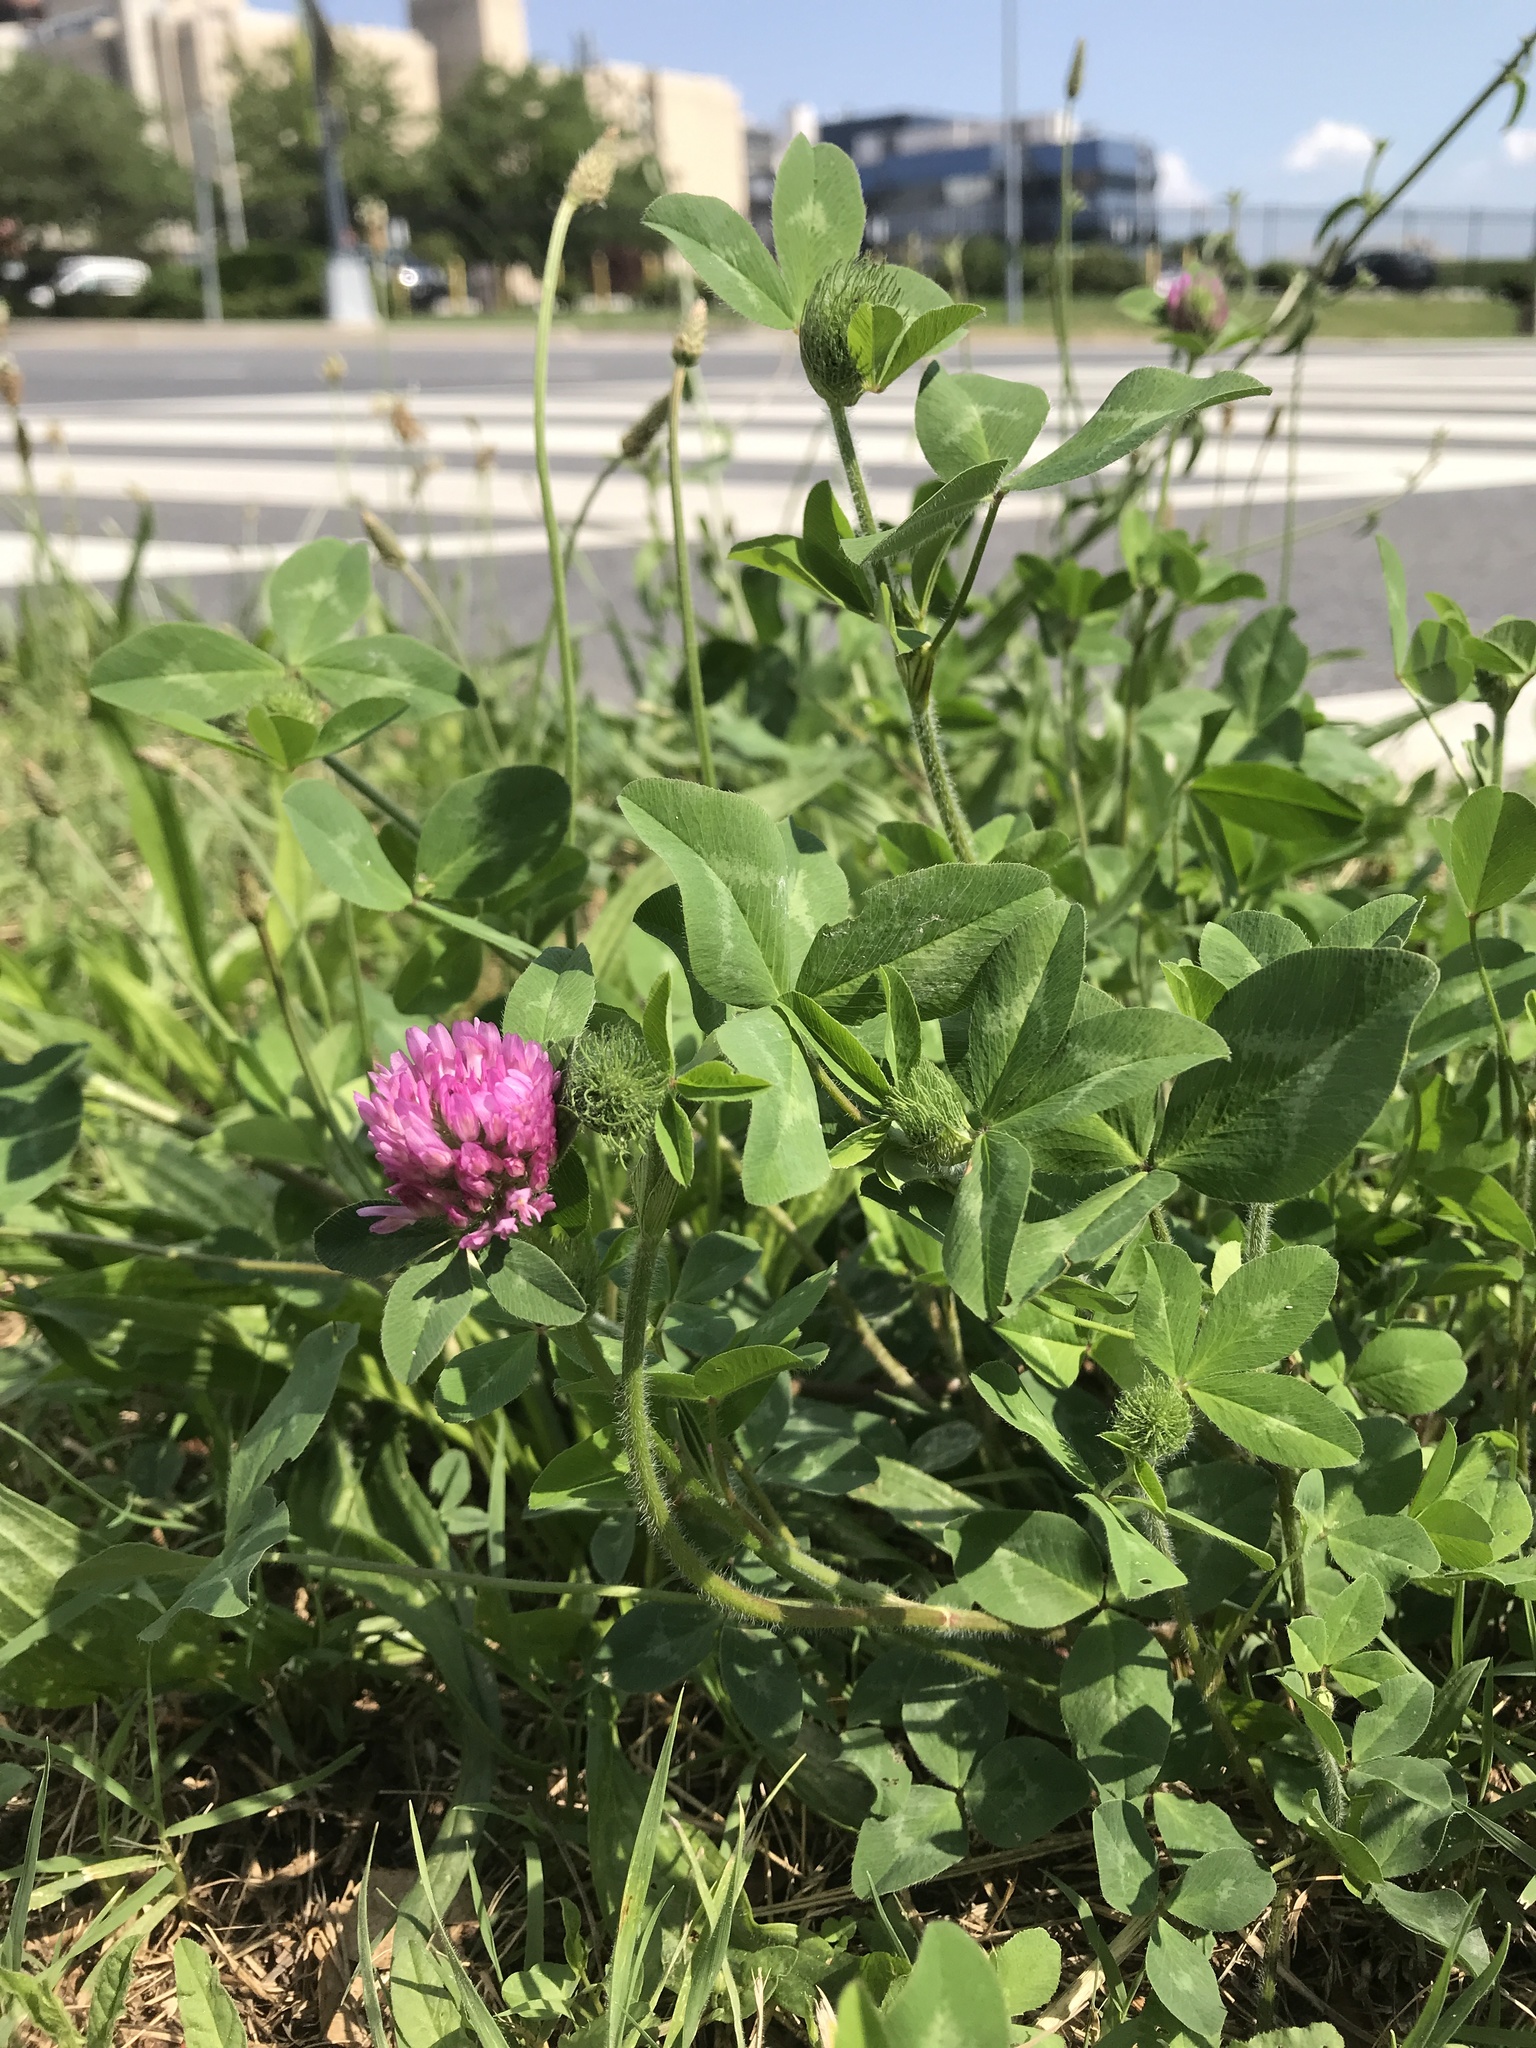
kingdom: Plantae
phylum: Tracheophyta
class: Magnoliopsida
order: Fabales
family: Fabaceae
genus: Trifolium
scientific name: Trifolium pratense
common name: Red clover
